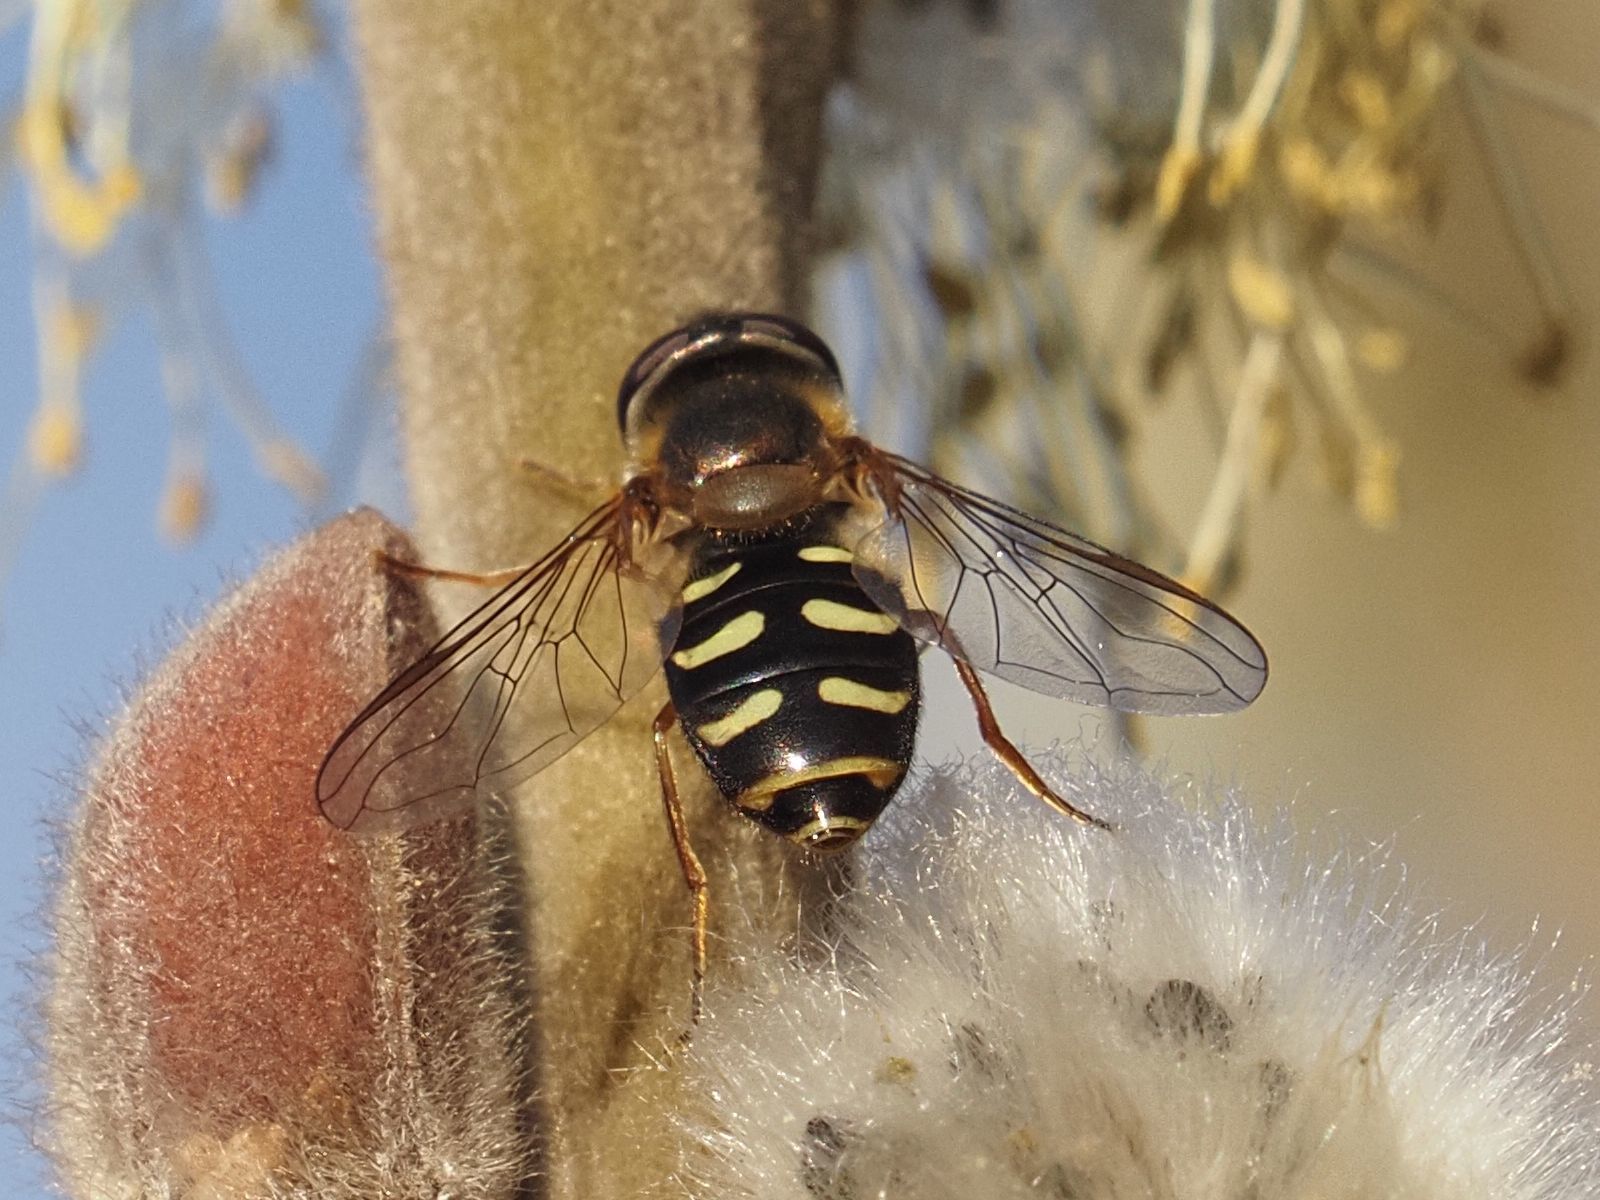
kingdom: Animalia
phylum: Arthropoda
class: Insecta
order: Diptera
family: Syrphidae
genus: Lapposyrphus
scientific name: Lapposyrphus lapponicus
